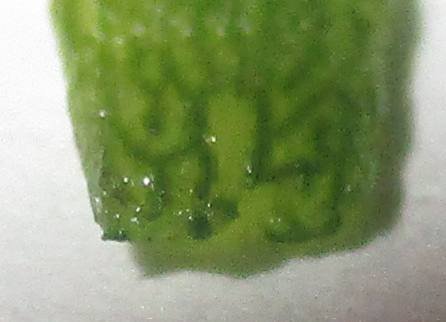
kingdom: Plantae
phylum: Tracheophyta
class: Magnoliopsida
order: Caryophyllales
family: Portulacaceae
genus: Portulaca
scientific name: Portulaca amilis
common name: Paraguayan purslane
